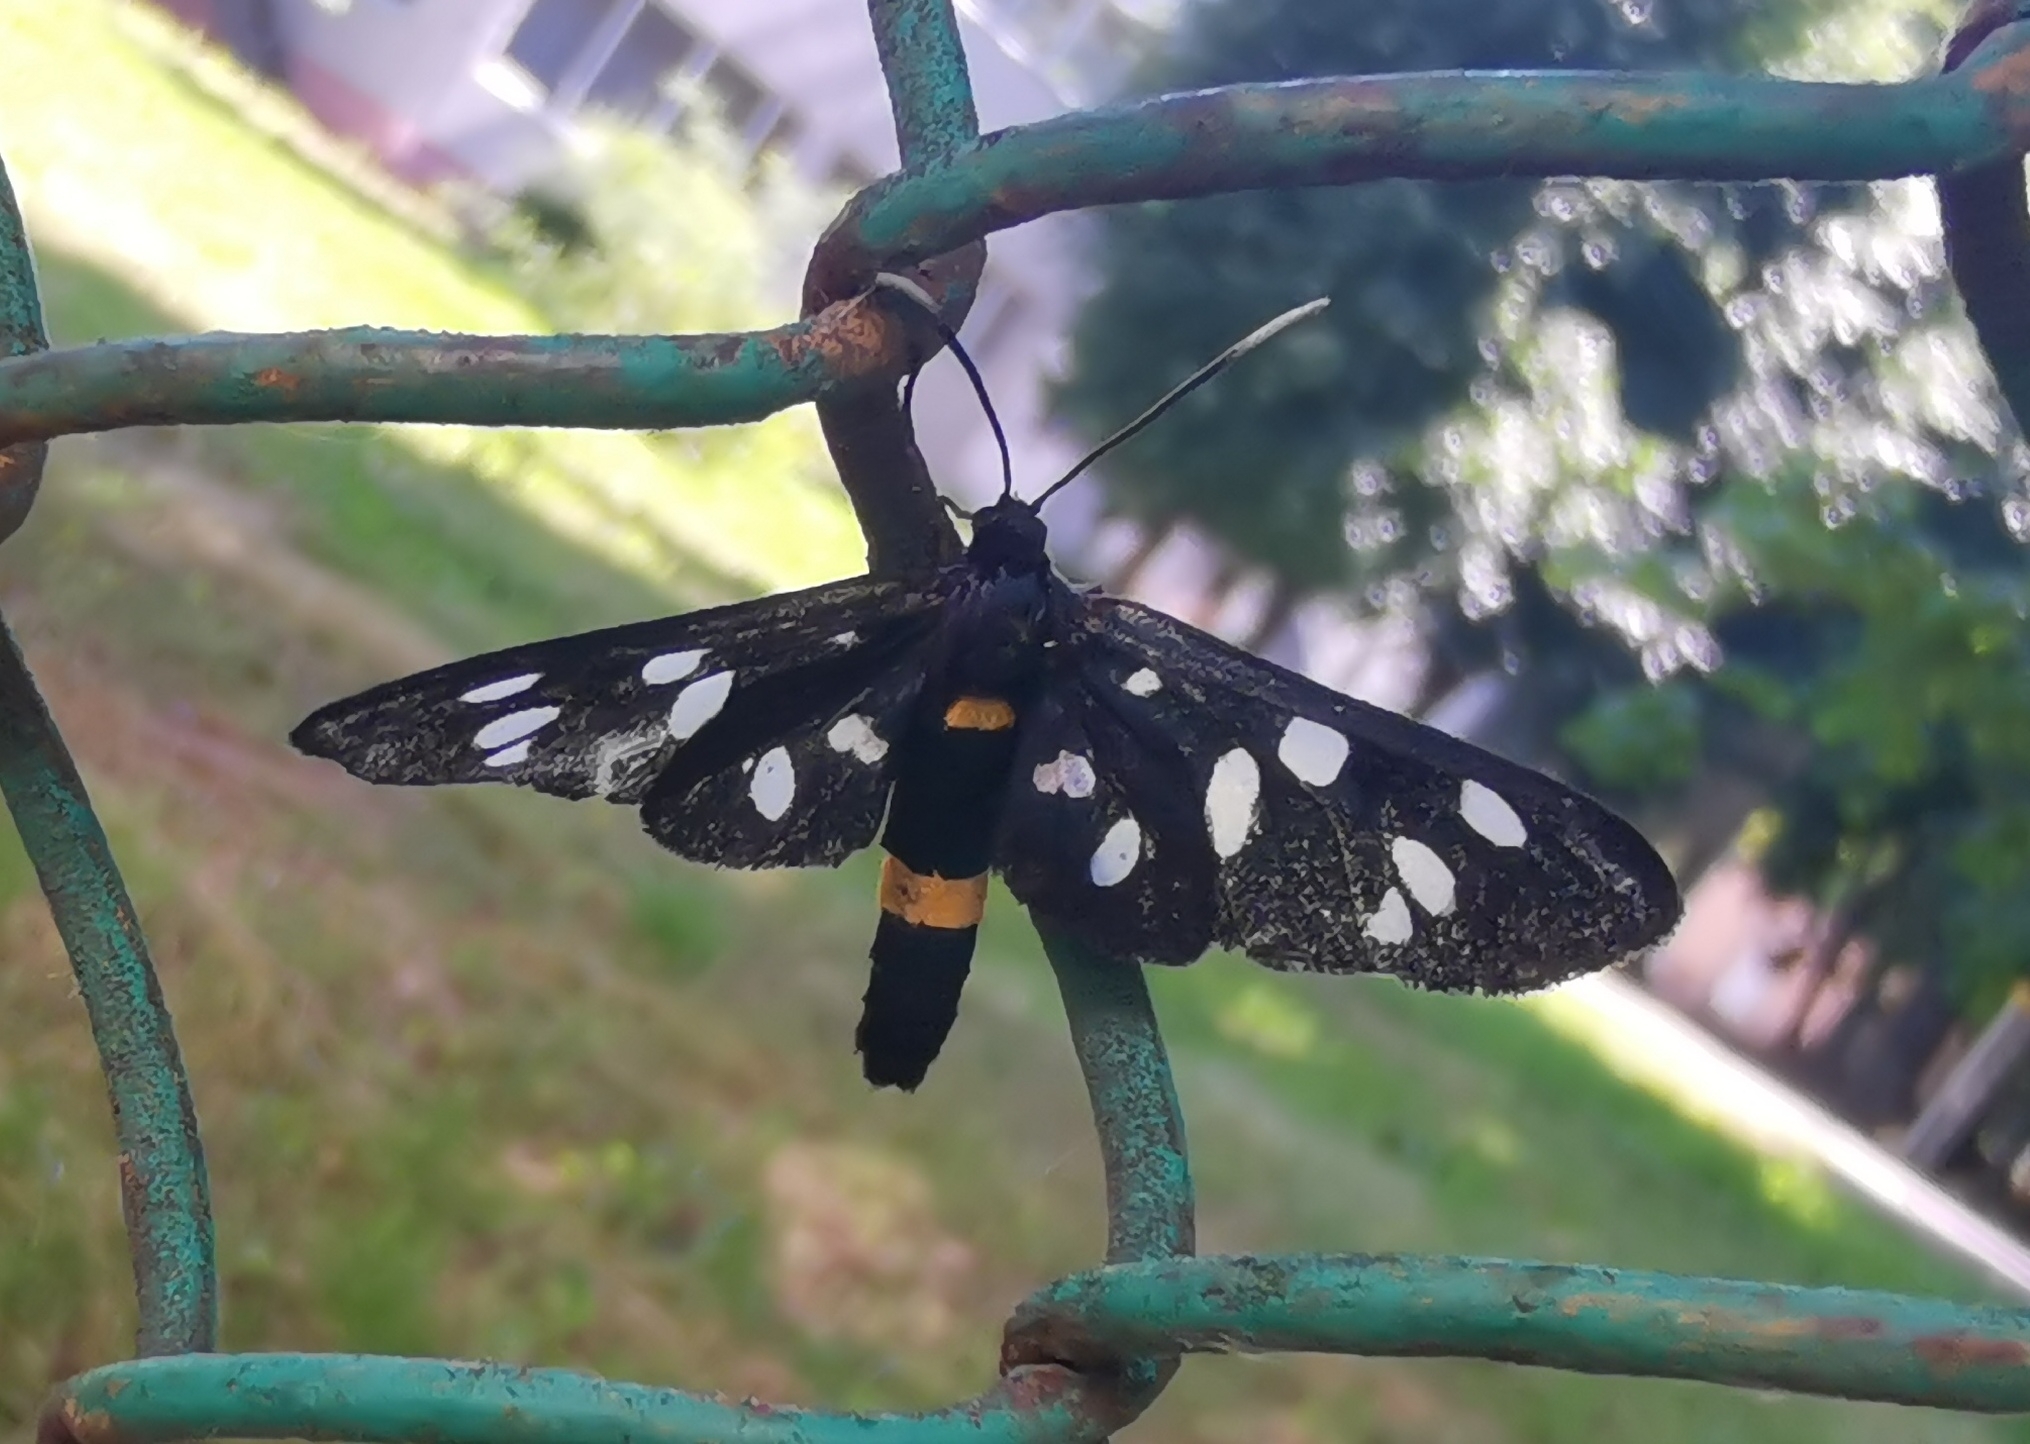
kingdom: Animalia
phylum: Arthropoda
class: Insecta
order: Lepidoptera
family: Erebidae
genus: Amata
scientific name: Amata phegea
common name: Nine-spotted
